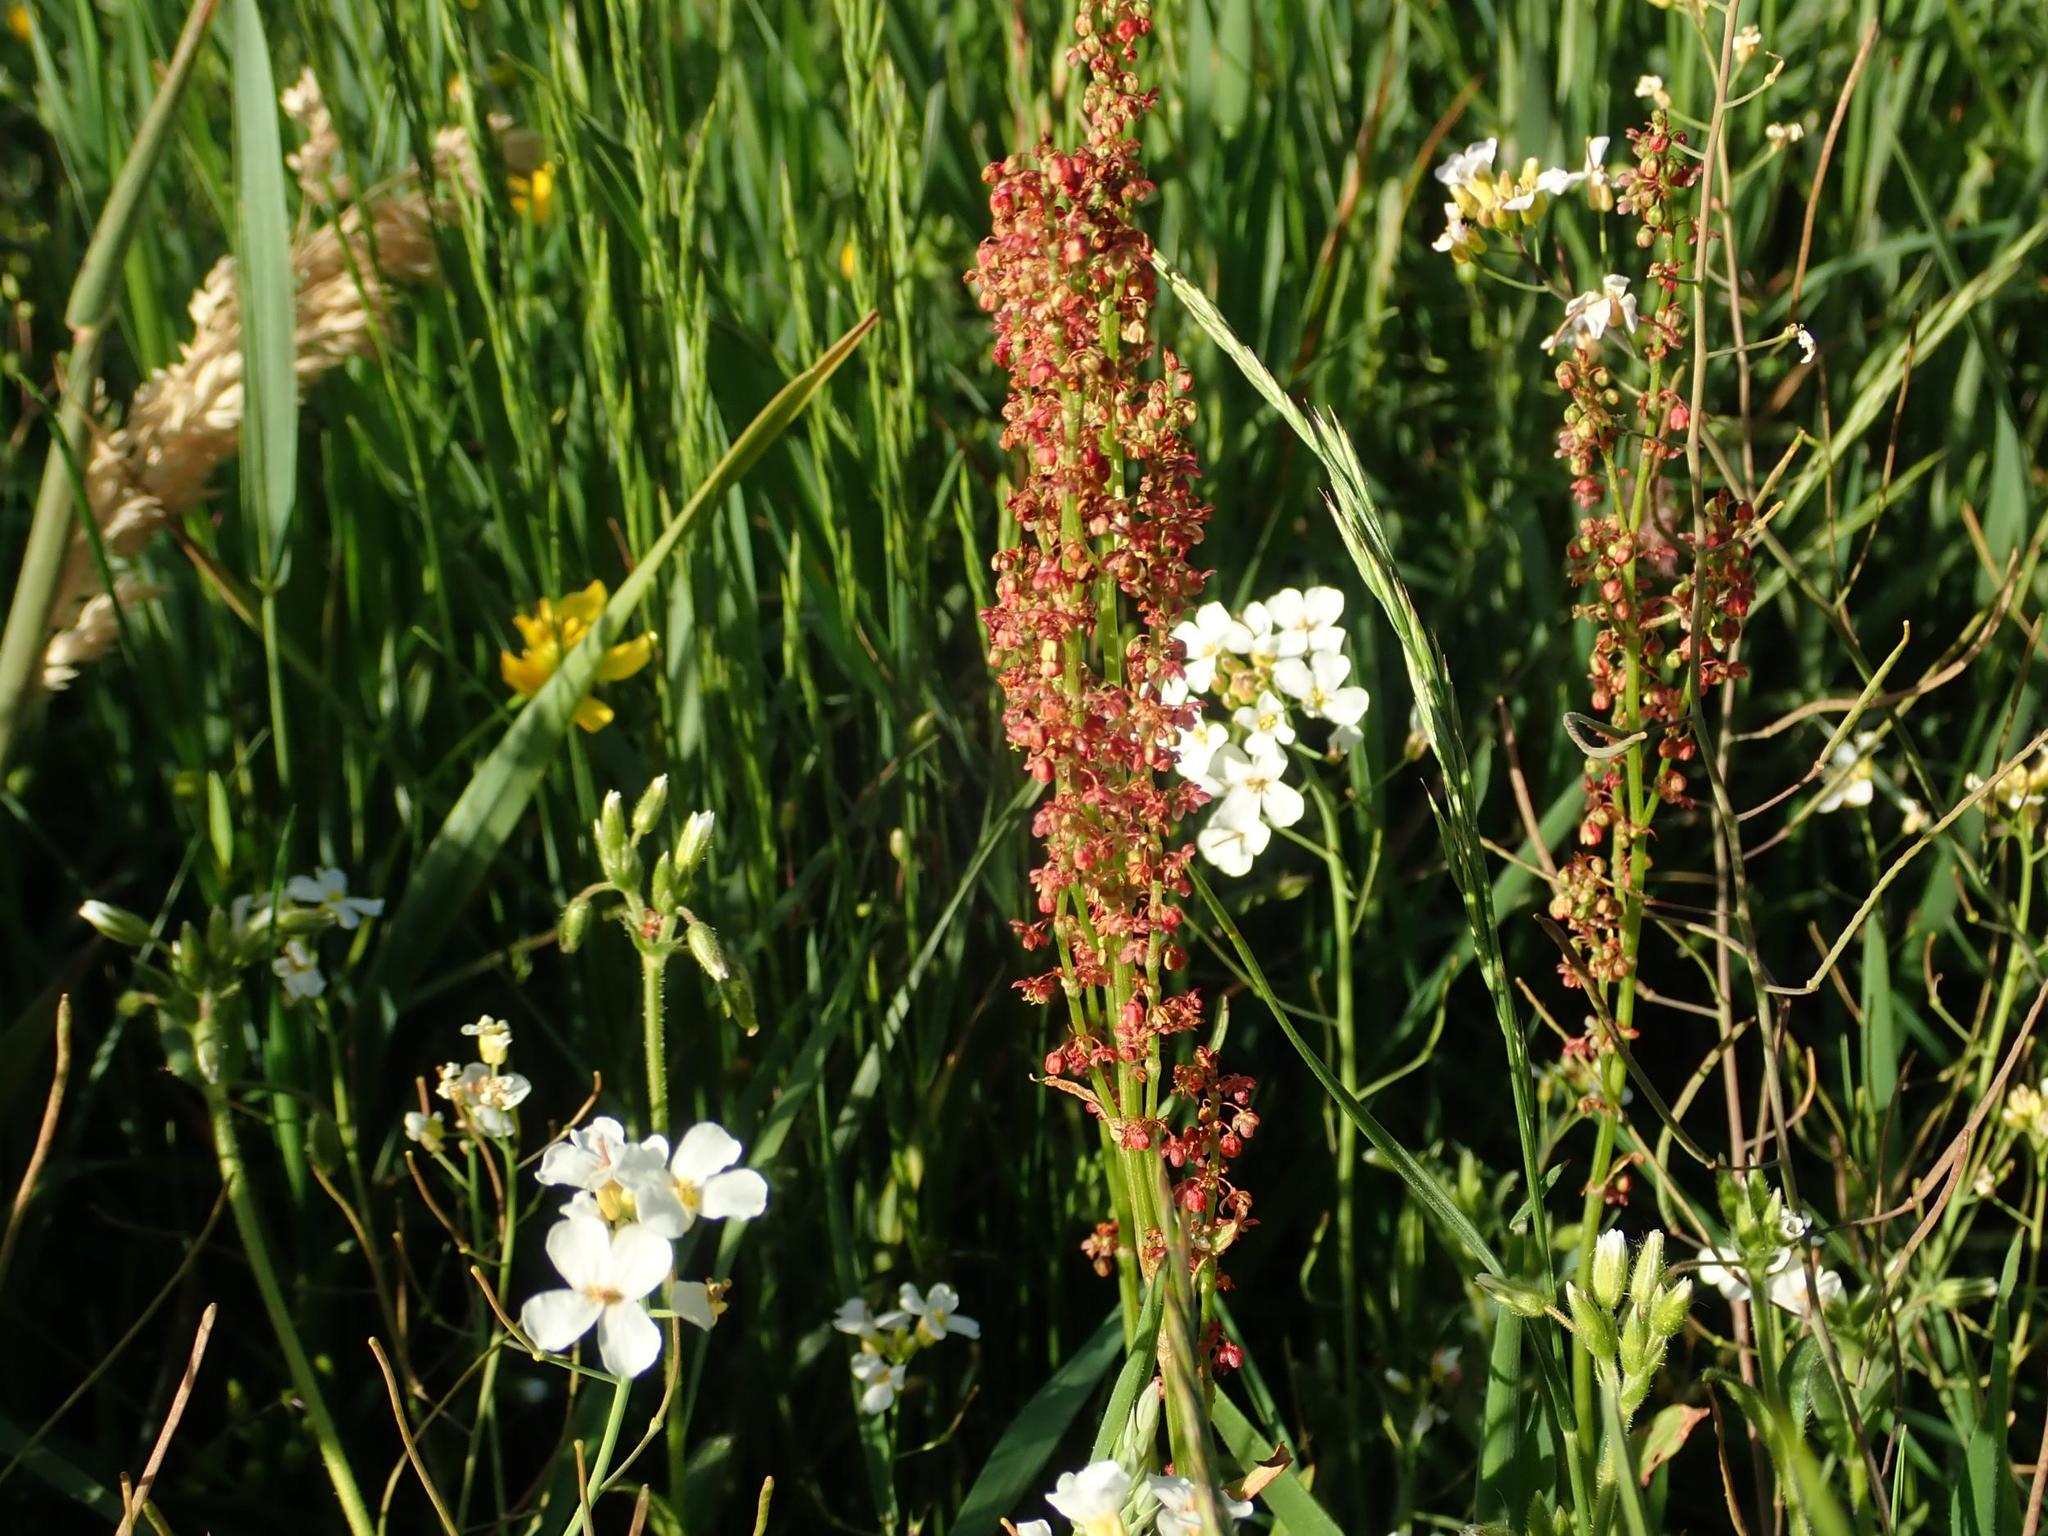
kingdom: Plantae
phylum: Tracheophyta
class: Magnoliopsida
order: Caryophyllales
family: Polygonaceae
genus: Rumex
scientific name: Rumex acetosa
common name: Garden sorrel
